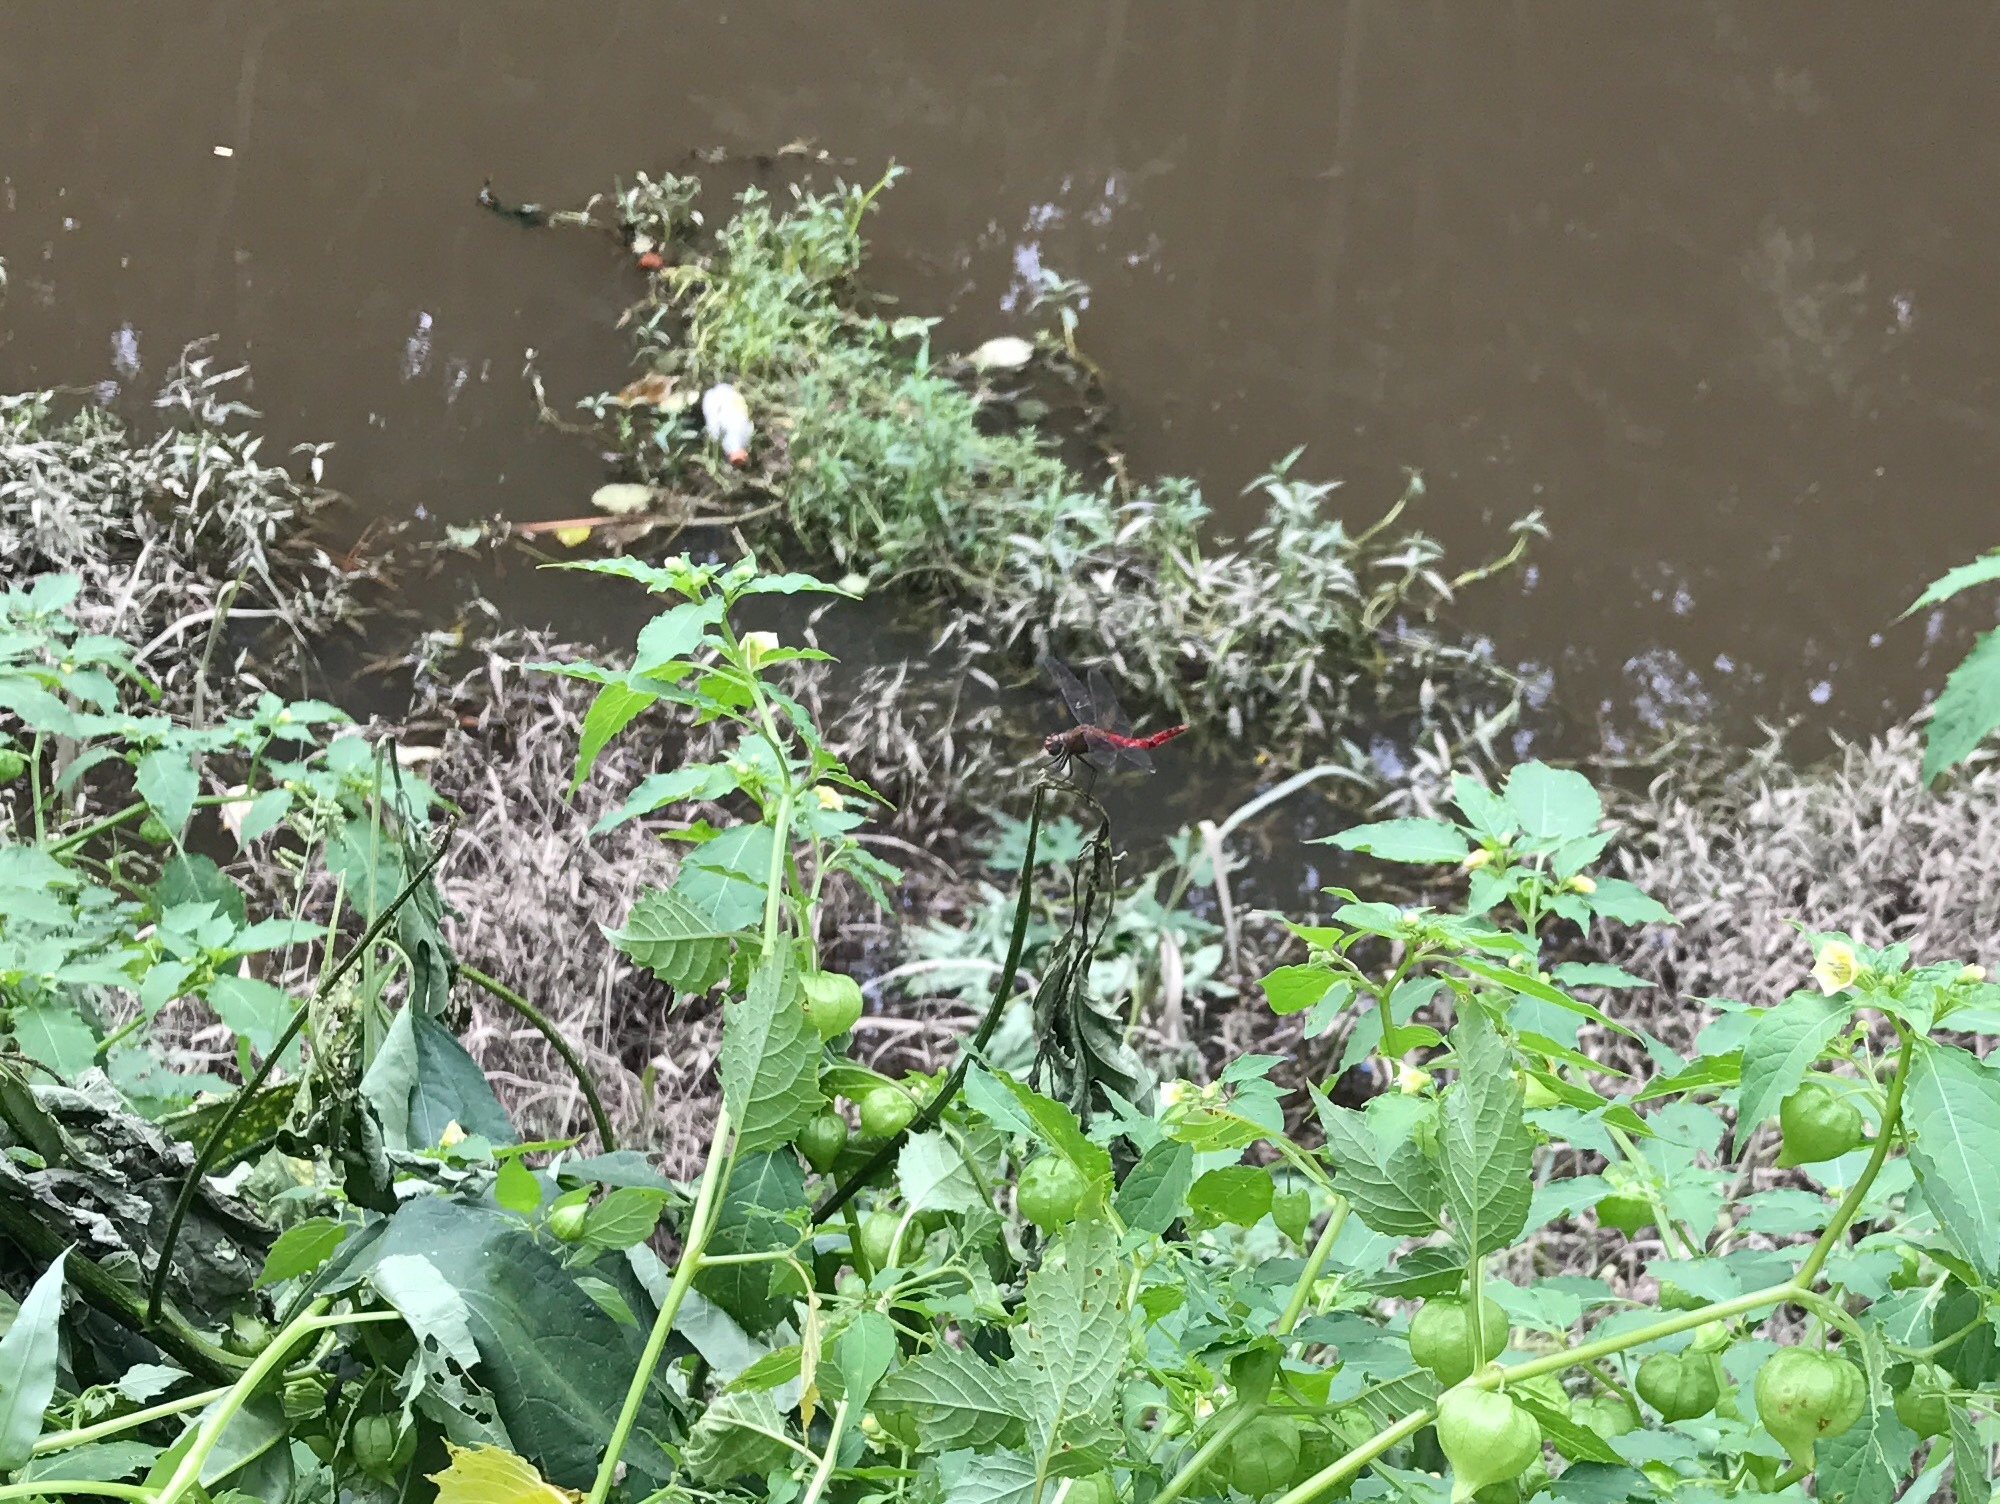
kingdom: Animalia
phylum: Arthropoda
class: Insecta
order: Odonata
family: Libellulidae
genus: Brachymesia
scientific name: Brachymesia furcata
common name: Red-taled pennant
